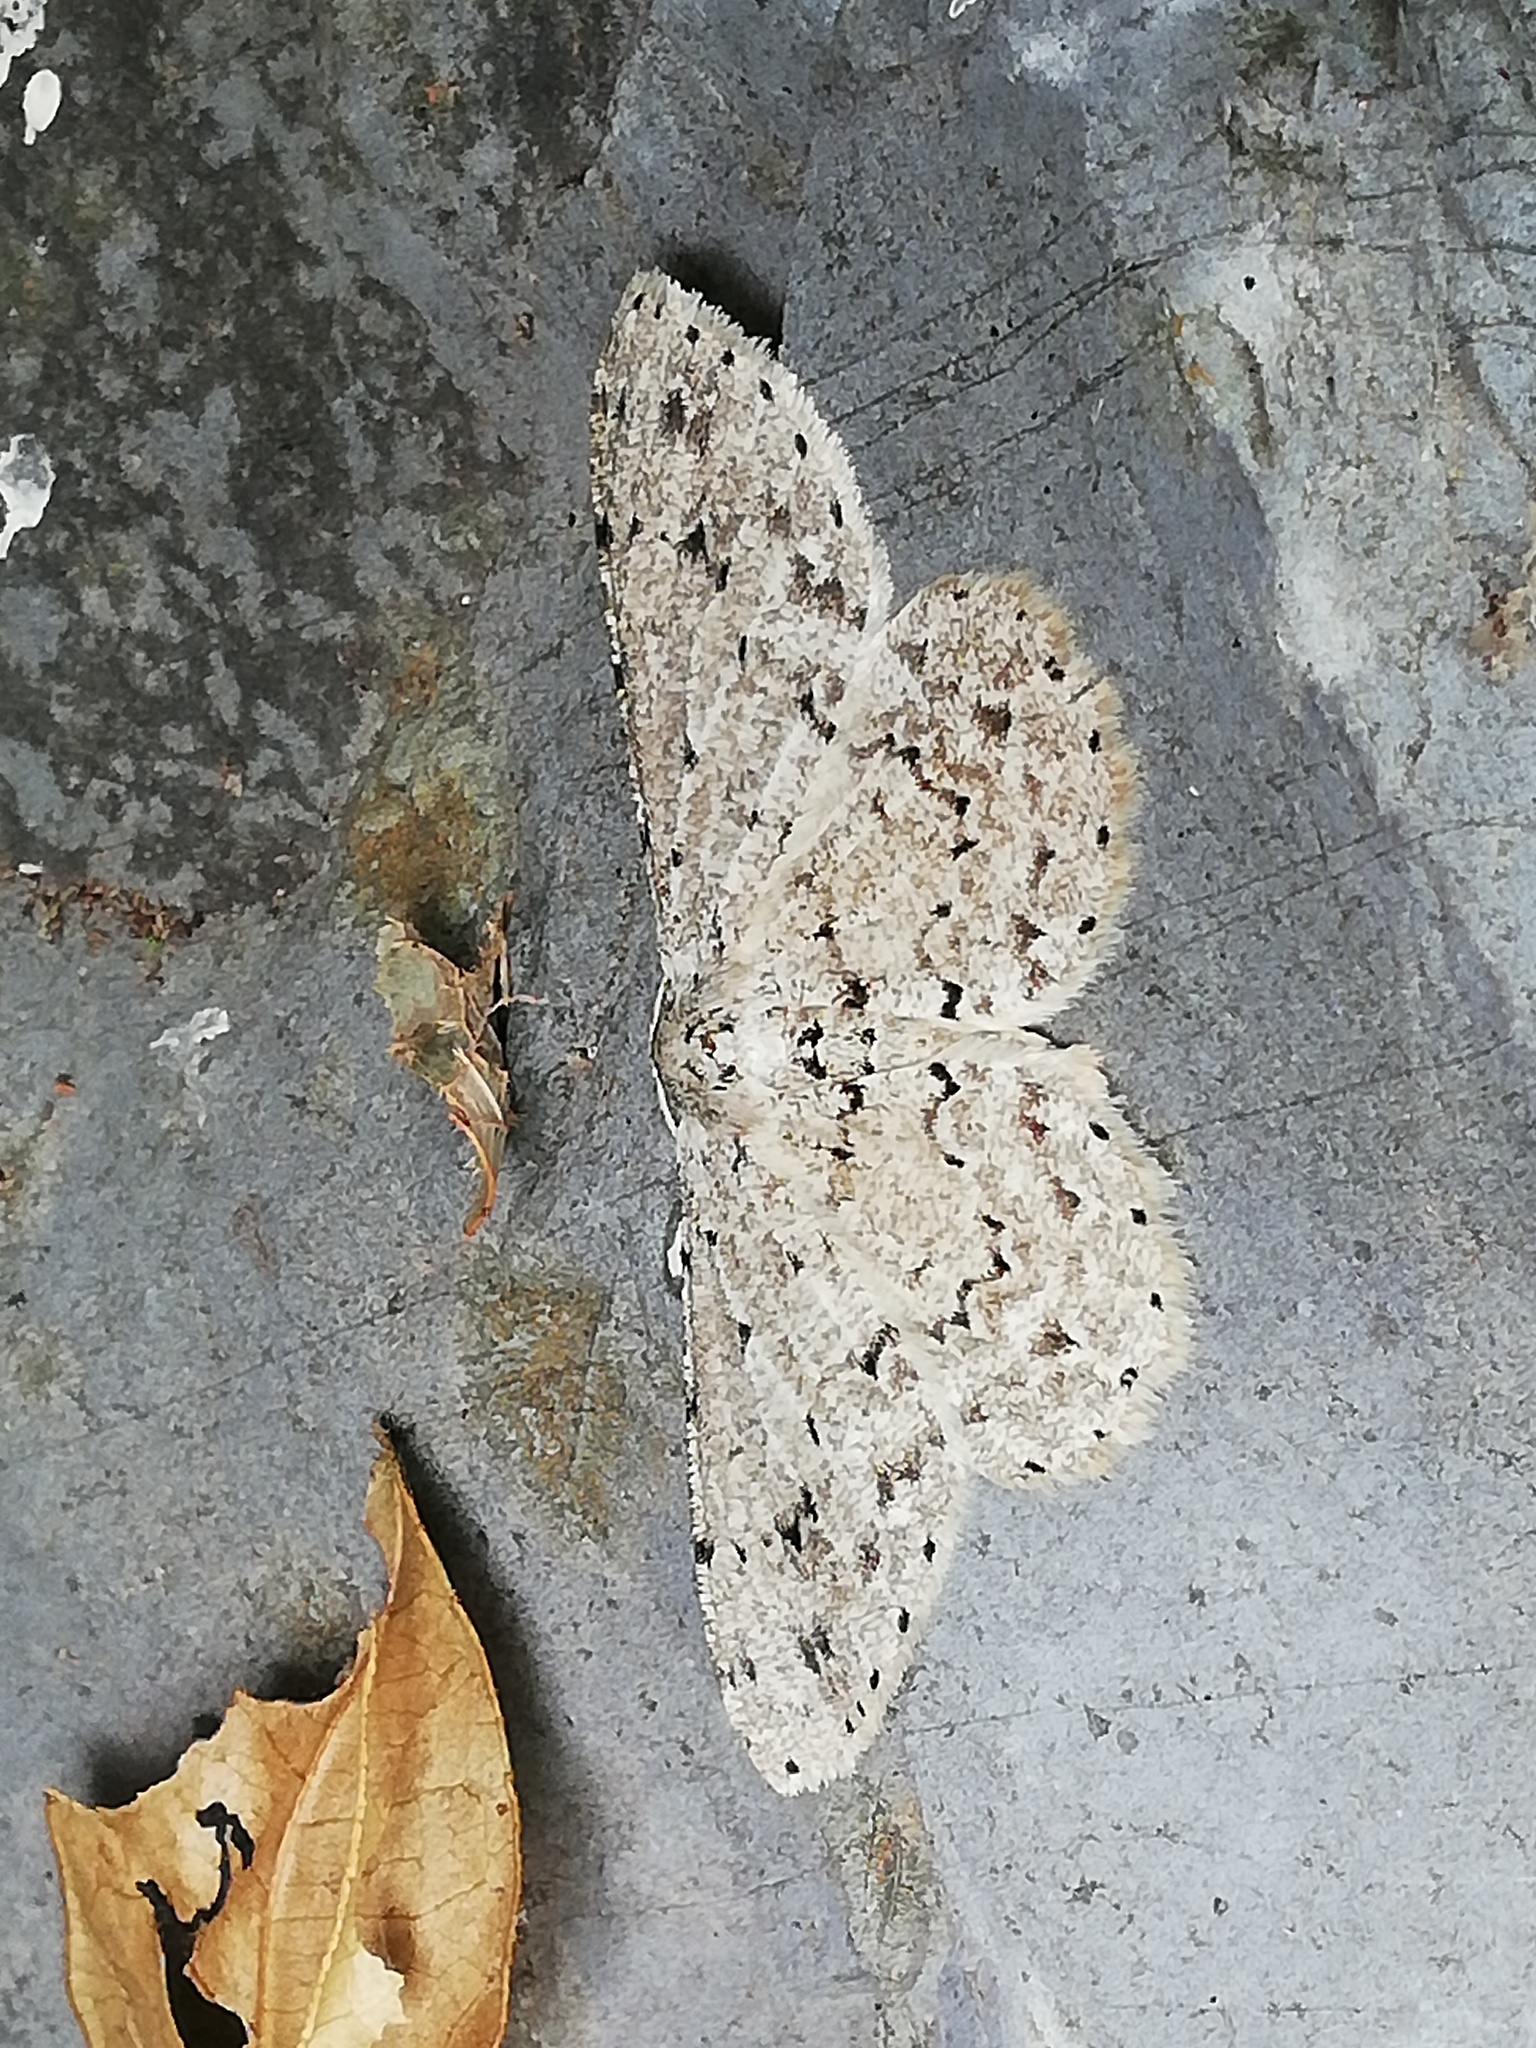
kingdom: Animalia
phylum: Arthropoda
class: Insecta
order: Lepidoptera
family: Geometridae
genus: Glena
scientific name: Glena cribrataria
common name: Dotted gray
